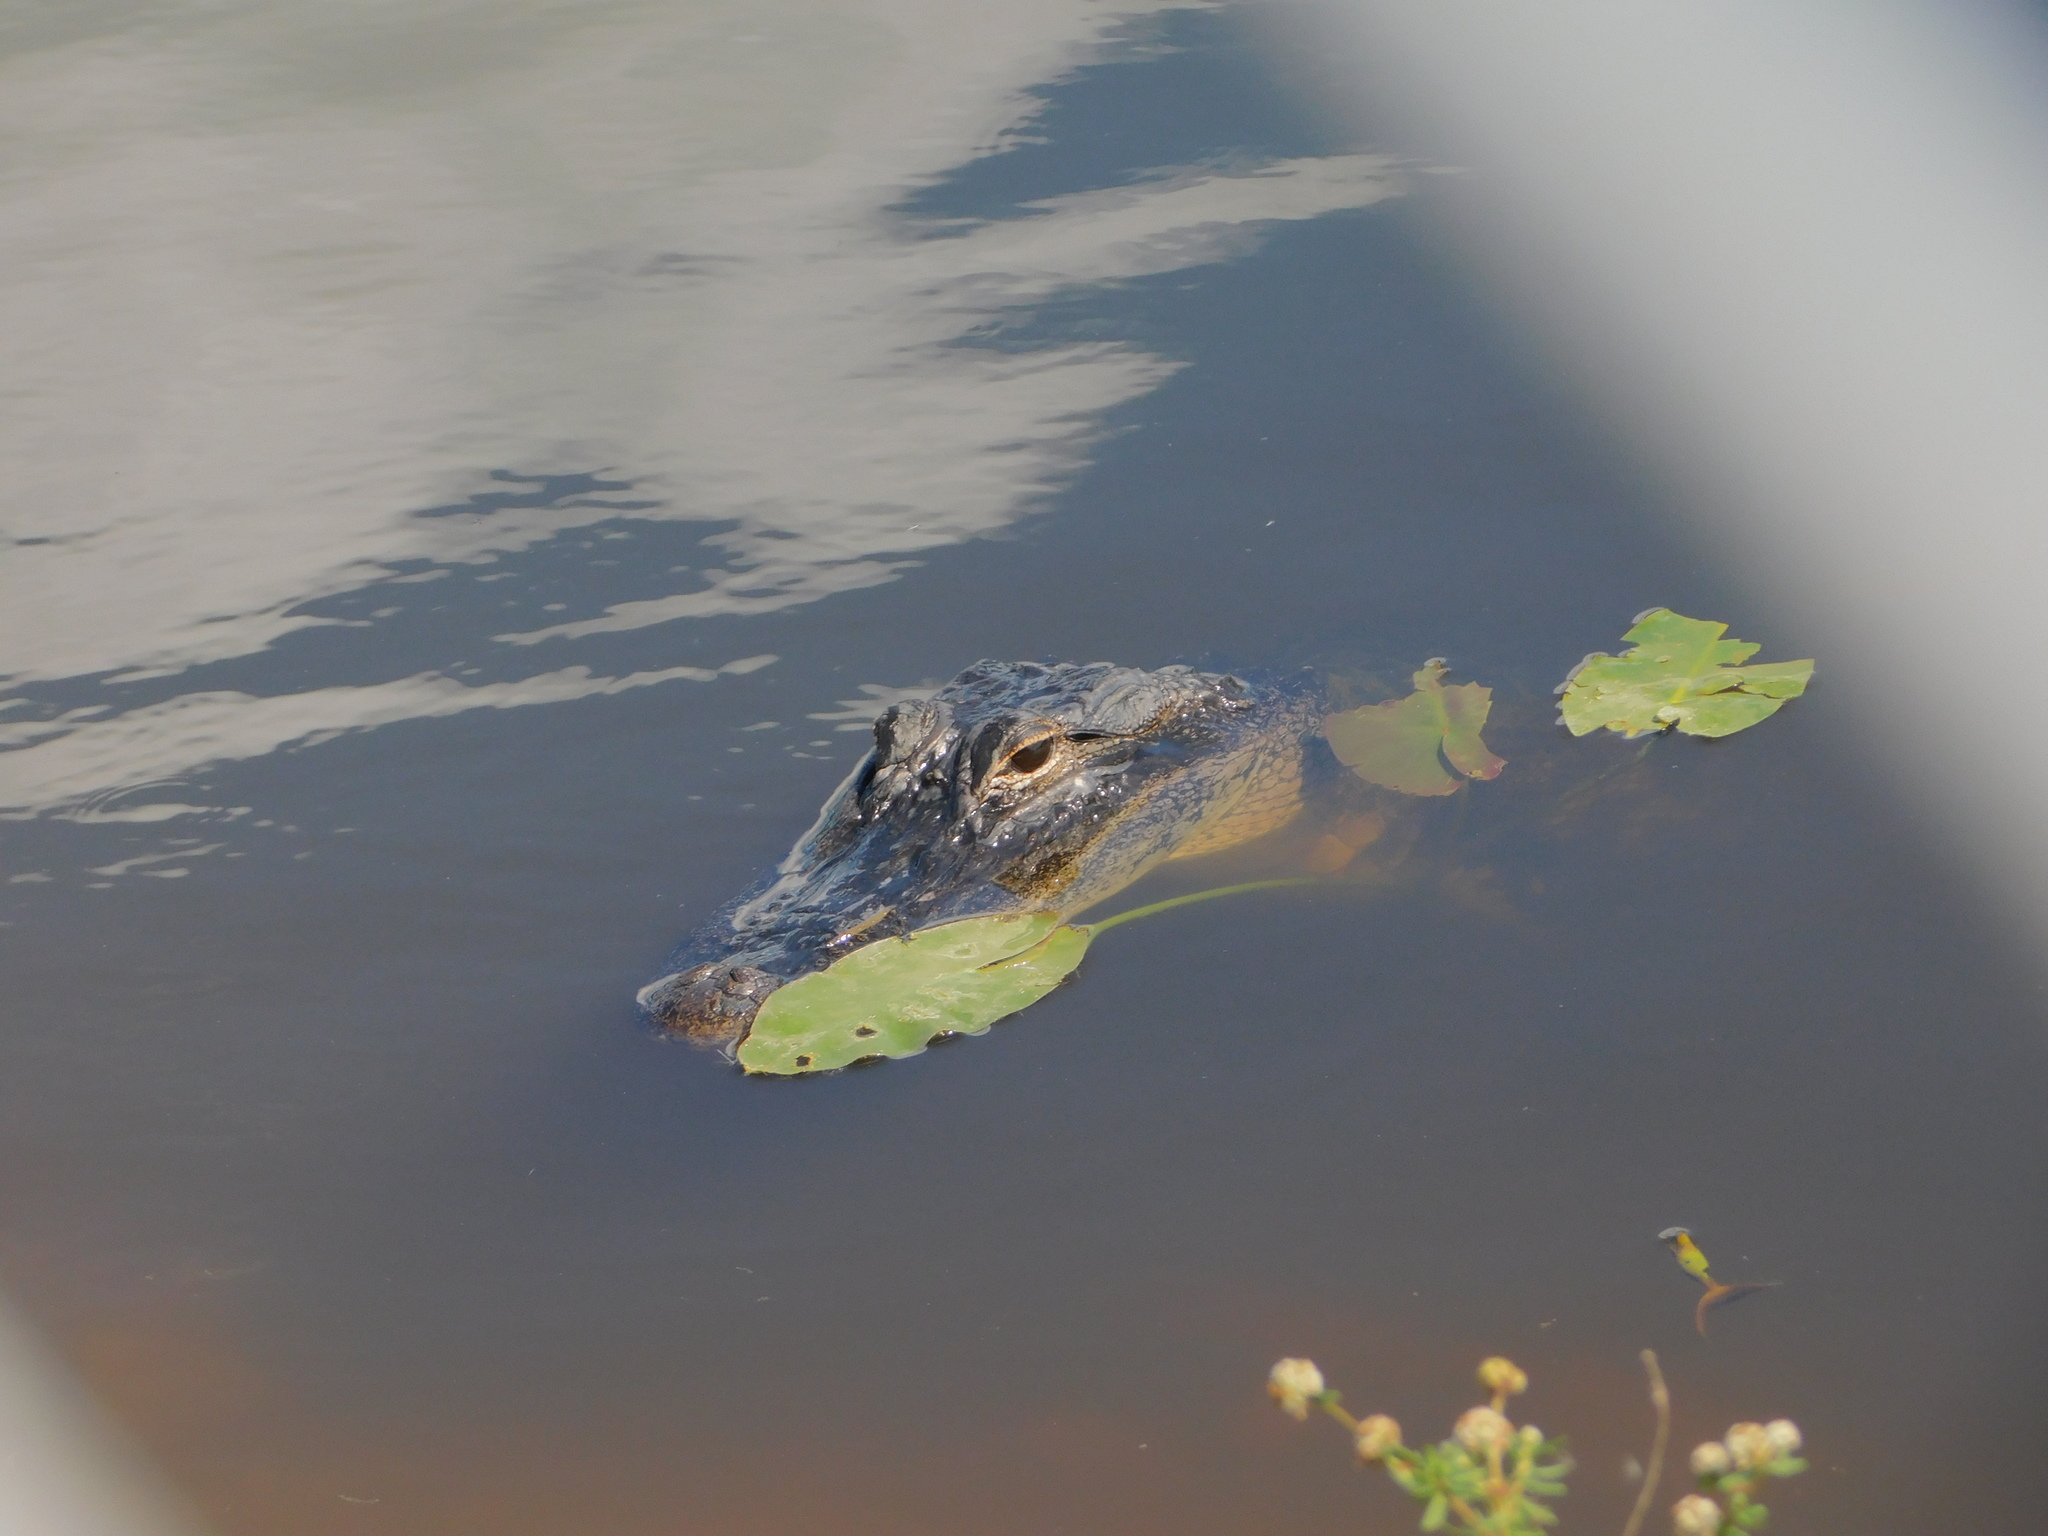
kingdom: Animalia
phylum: Chordata
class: Crocodylia
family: Alligatoridae
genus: Alligator
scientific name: Alligator mississippiensis
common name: American alligator
